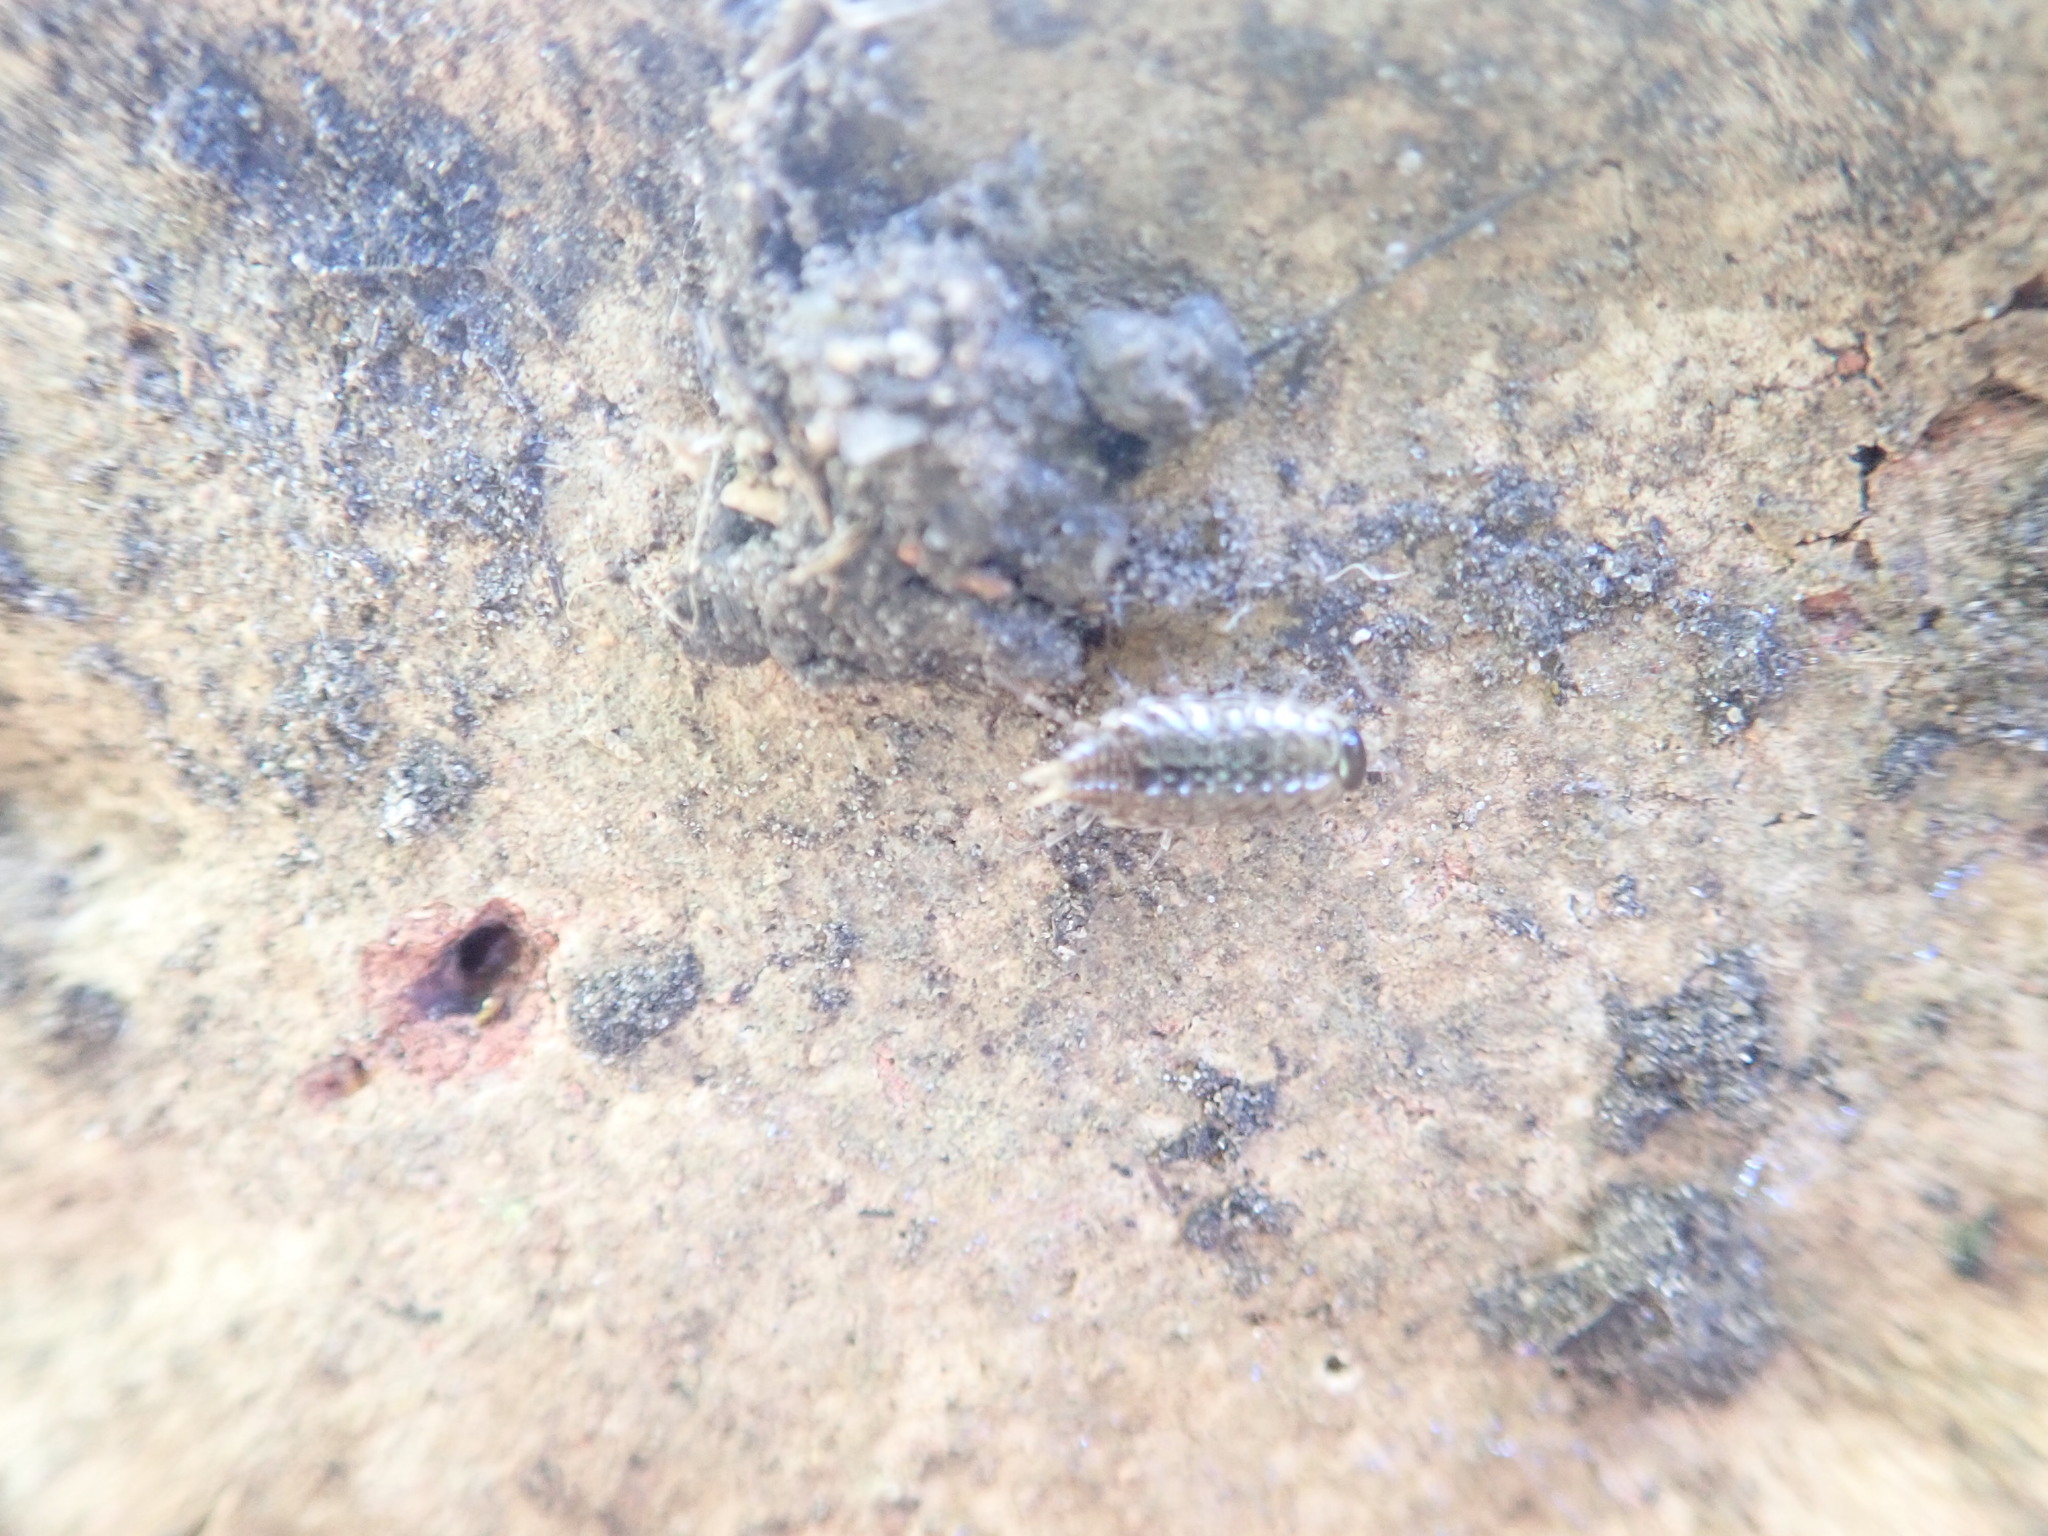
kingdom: Animalia
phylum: Arthropoda
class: Malacostraca
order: Isopoda
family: Philosciidae
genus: Philoscia
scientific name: Philoscia muscorum
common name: Common striped woodlouse
